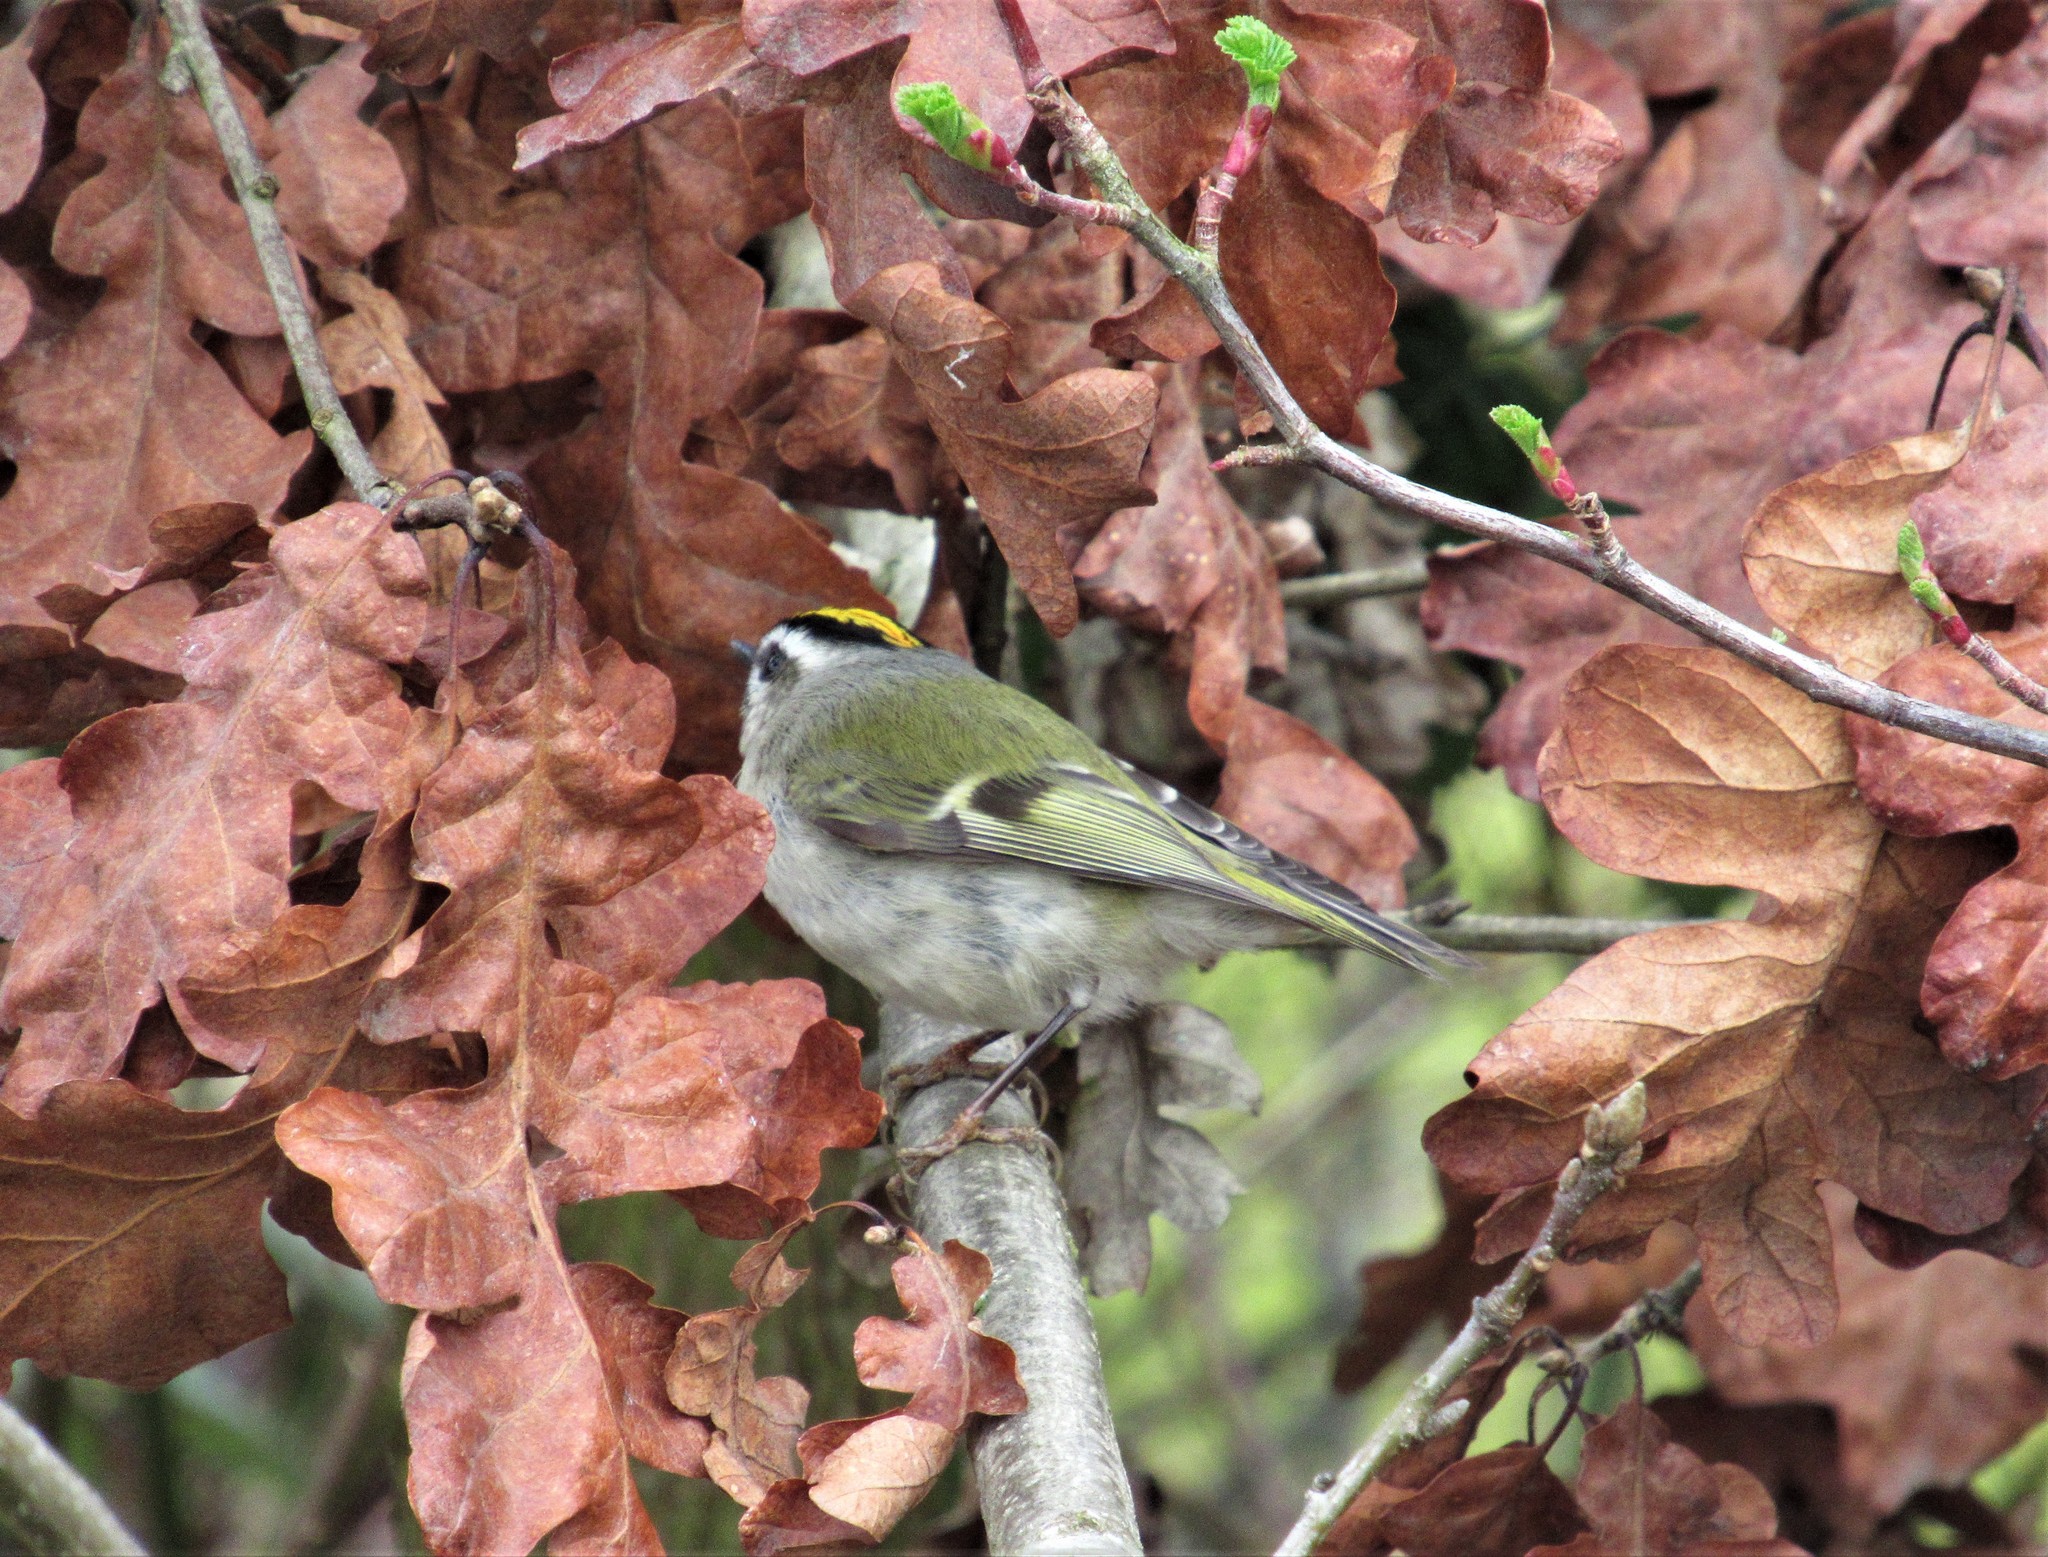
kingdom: Animalia
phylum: Chordata
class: Aves
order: Passeriformes
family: Regulidae
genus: Regulus
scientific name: Regulus satrapa
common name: Golden-crowned kinglet
